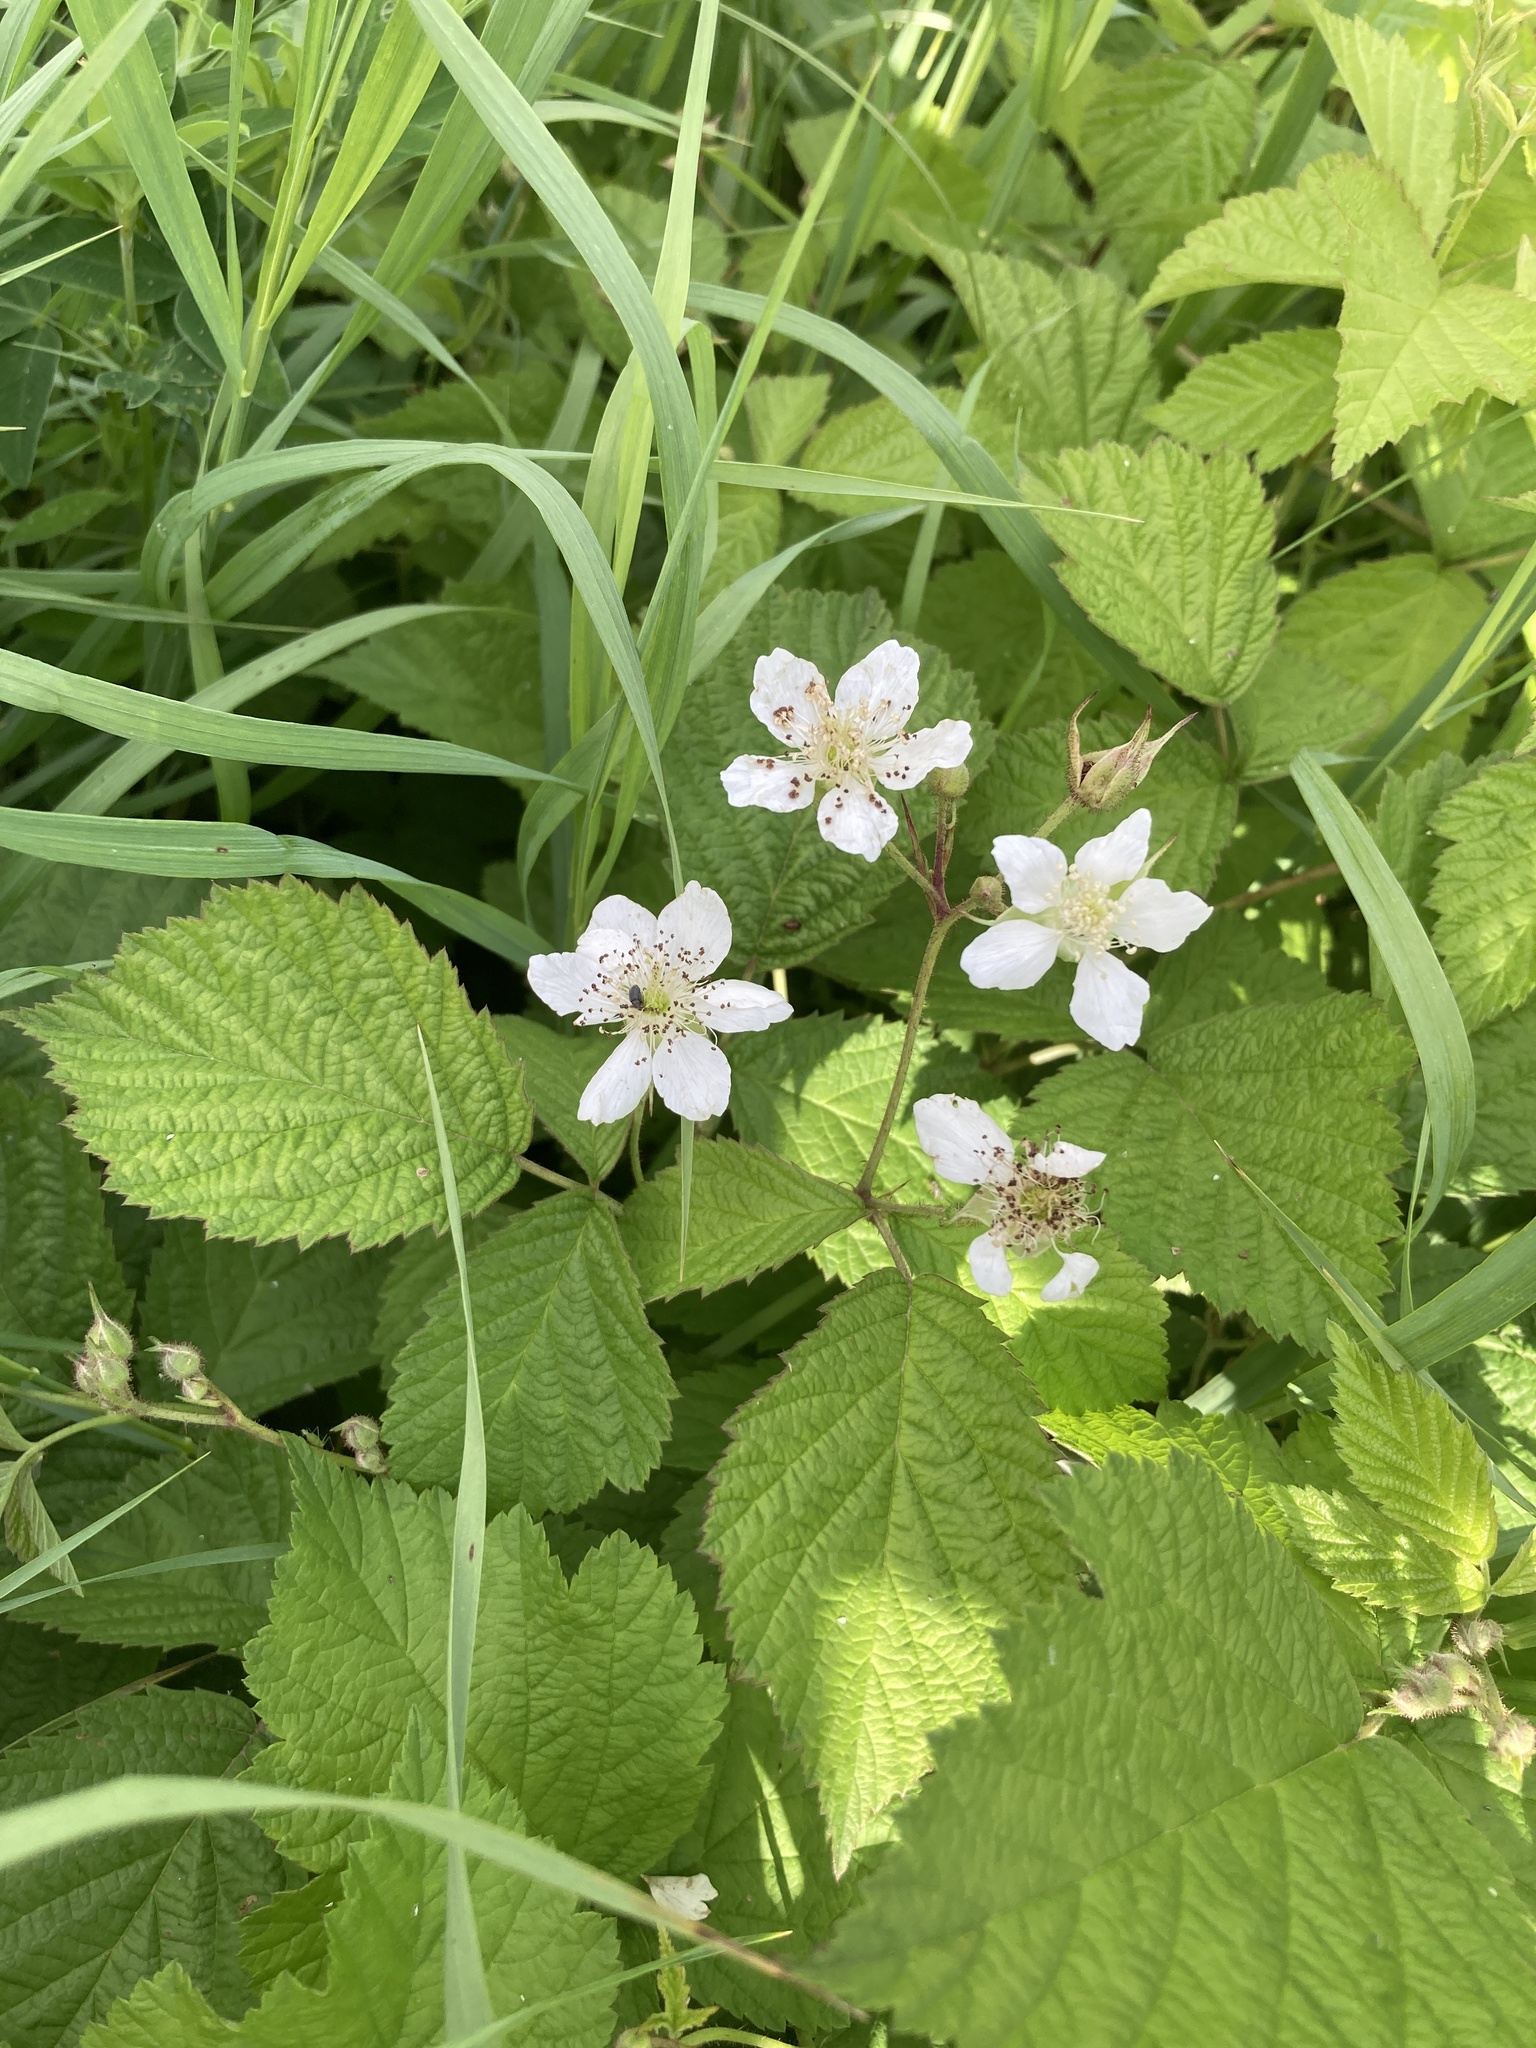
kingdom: Plantae
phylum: Tracheophyta
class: Magnoliopsida
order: Rosales
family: Rosaceae
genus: Rubus
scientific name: Rubus caesius
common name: Dewberry
